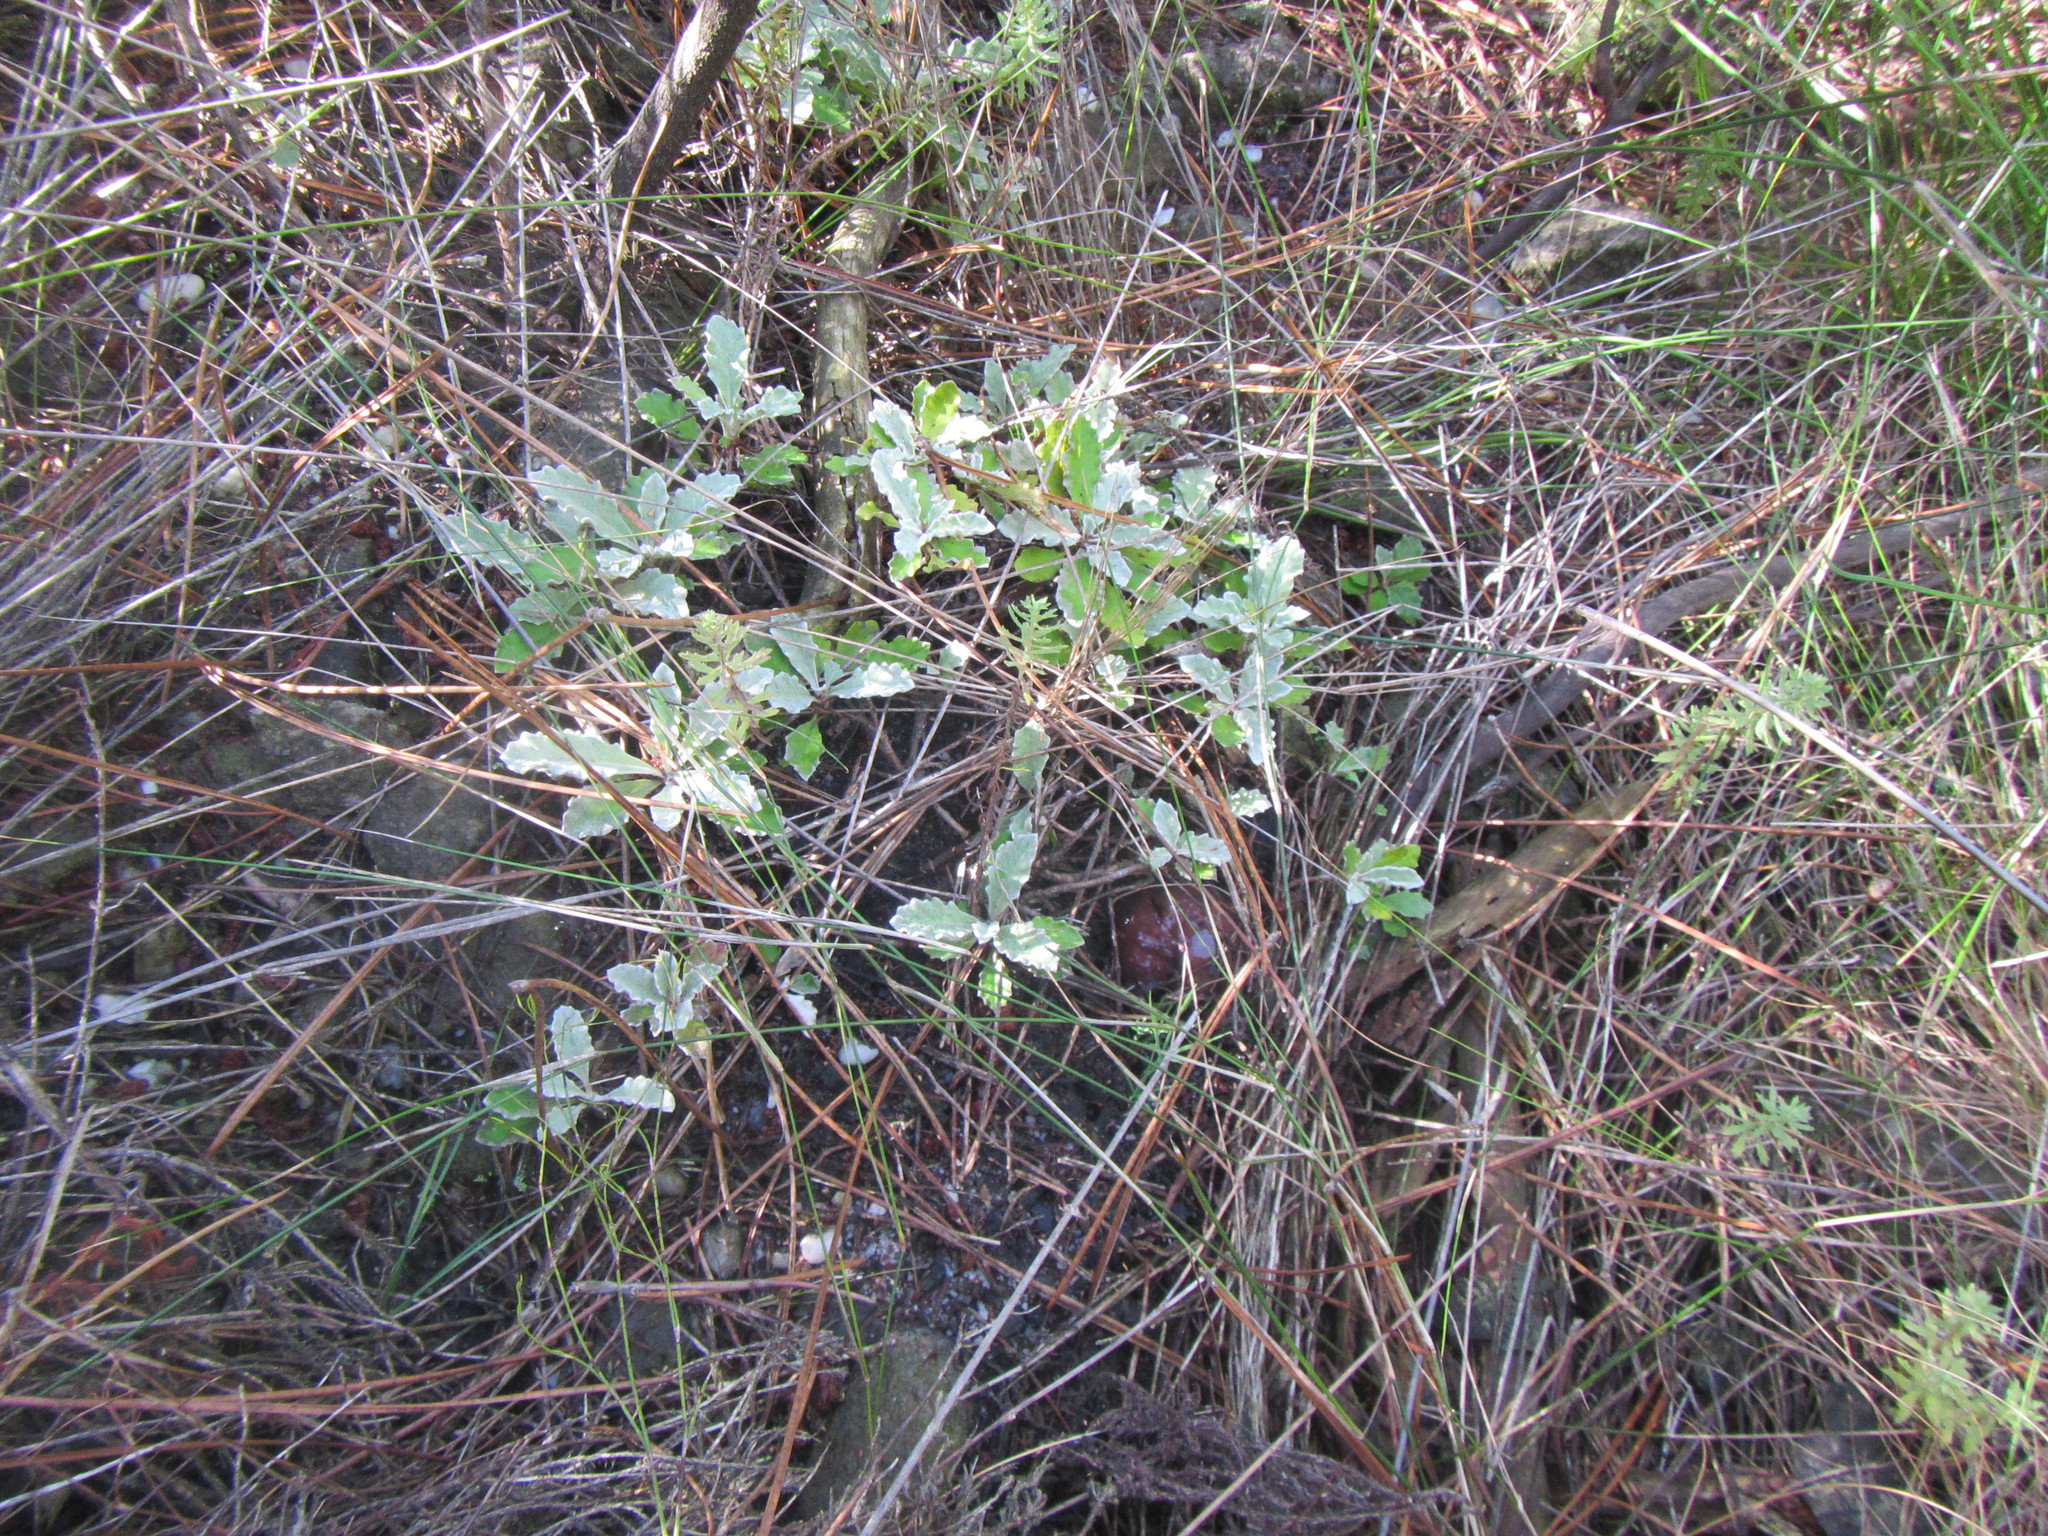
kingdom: Plantae
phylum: Tracheophyta
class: Magnoliopsida
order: Apiales
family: Apiaceae
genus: Hermas
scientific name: Hermas quercifolia
